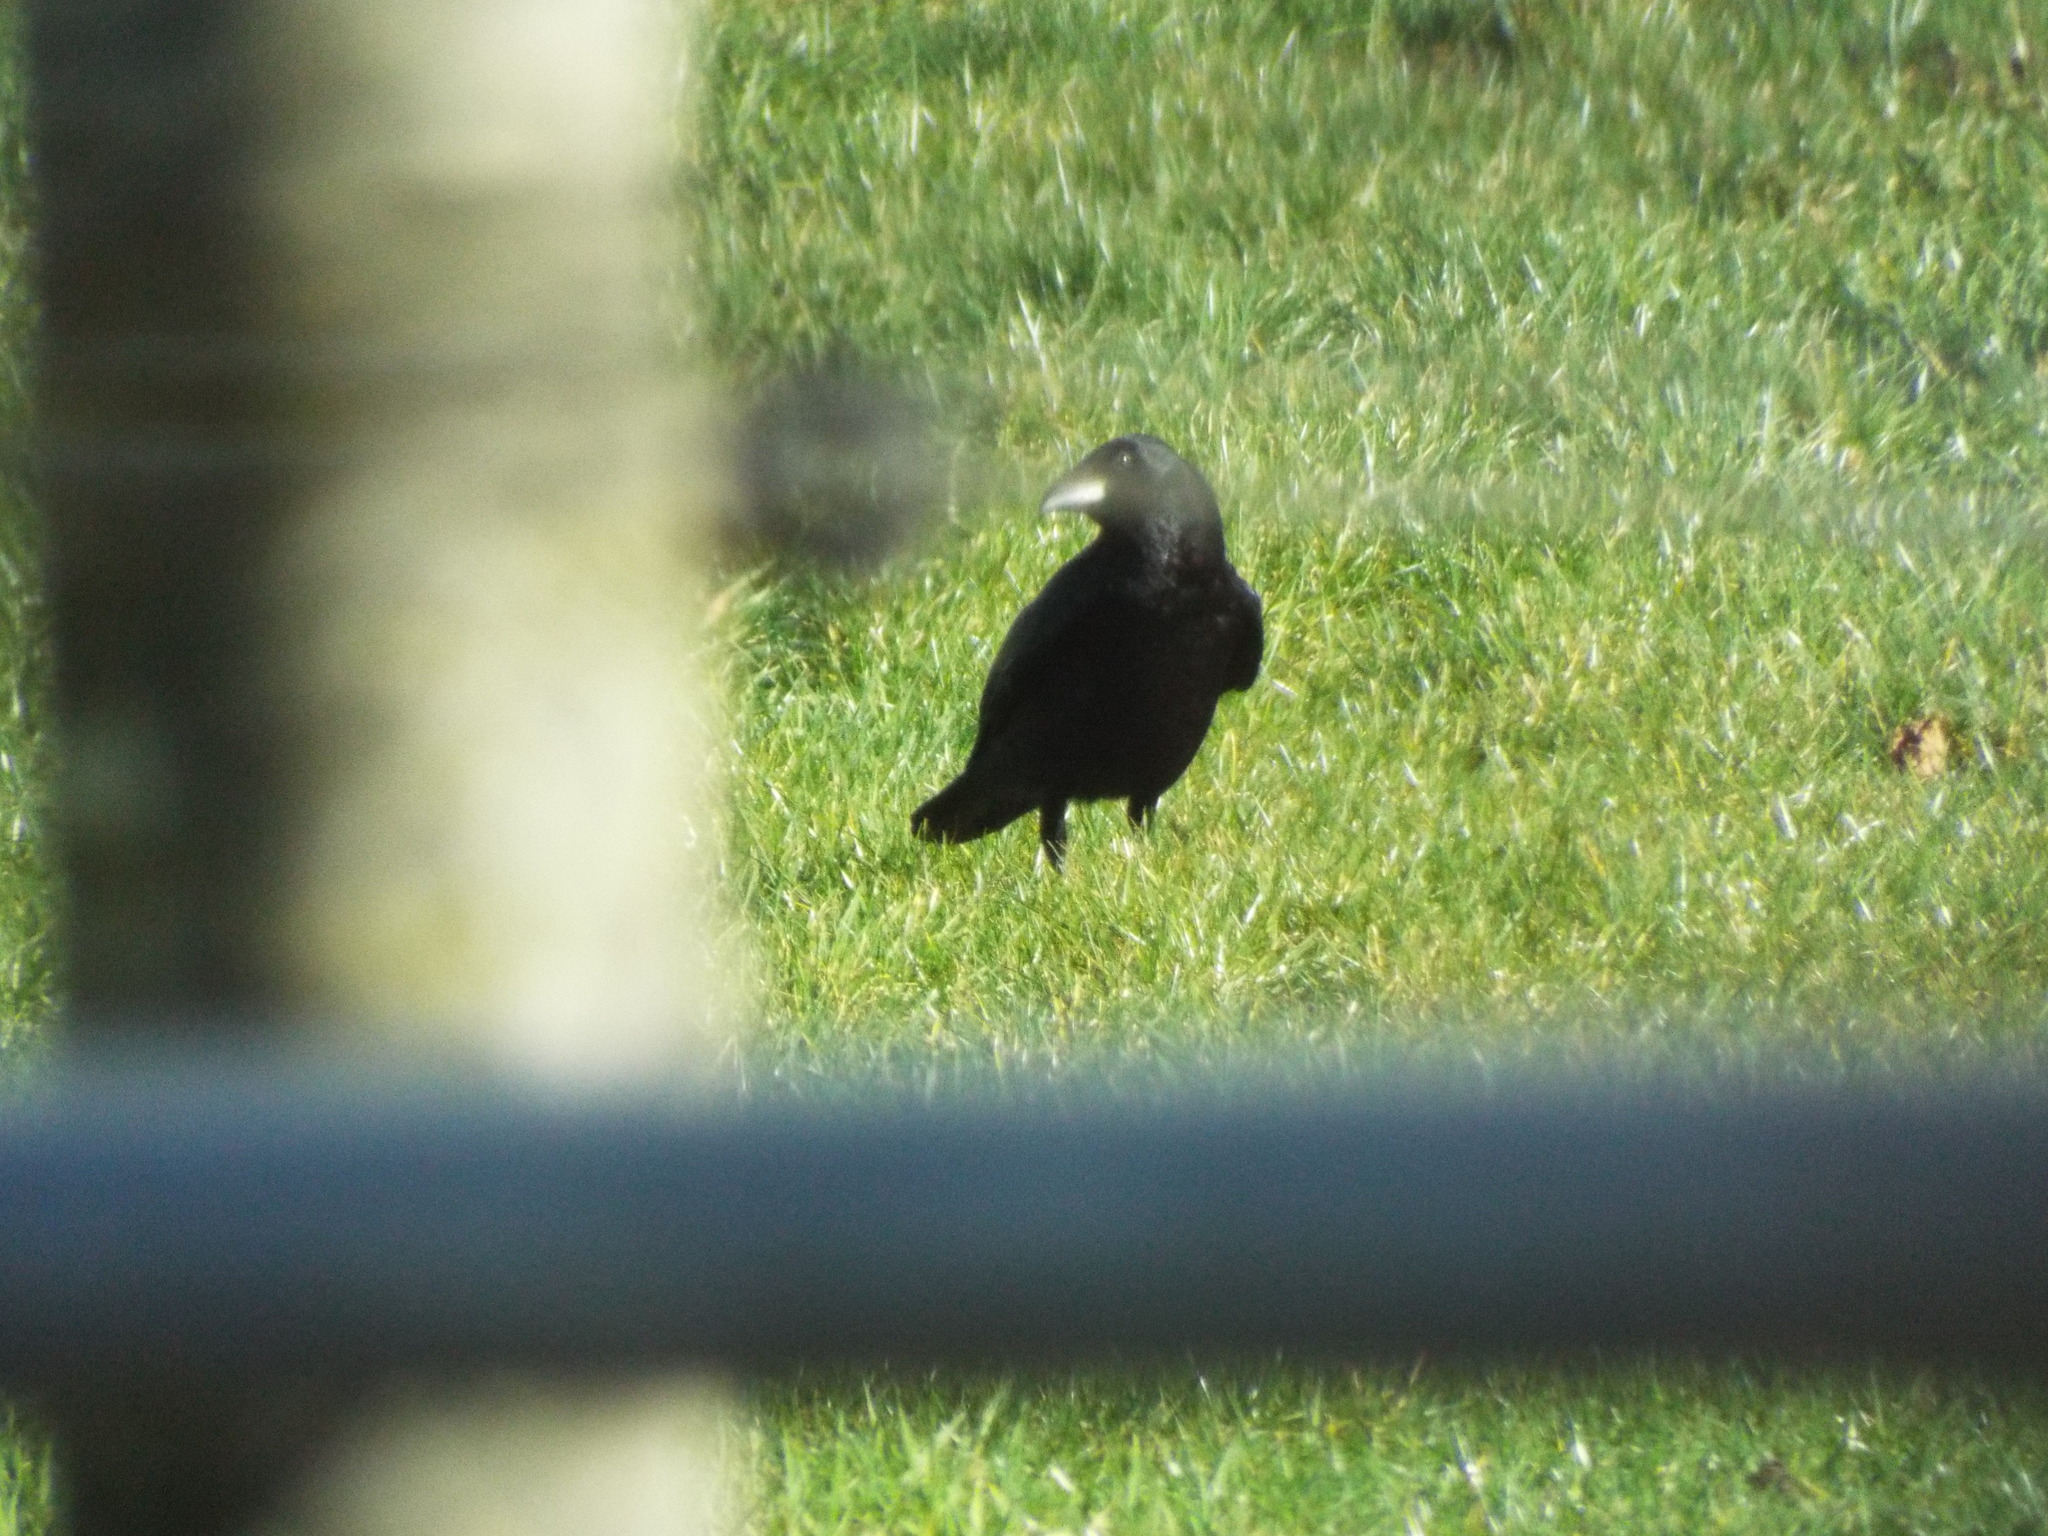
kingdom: Animalia
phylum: Chordata
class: Aves
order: Passeriformes
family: Corvidae
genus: Corvus
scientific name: Corvus corone
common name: Carrion crow
